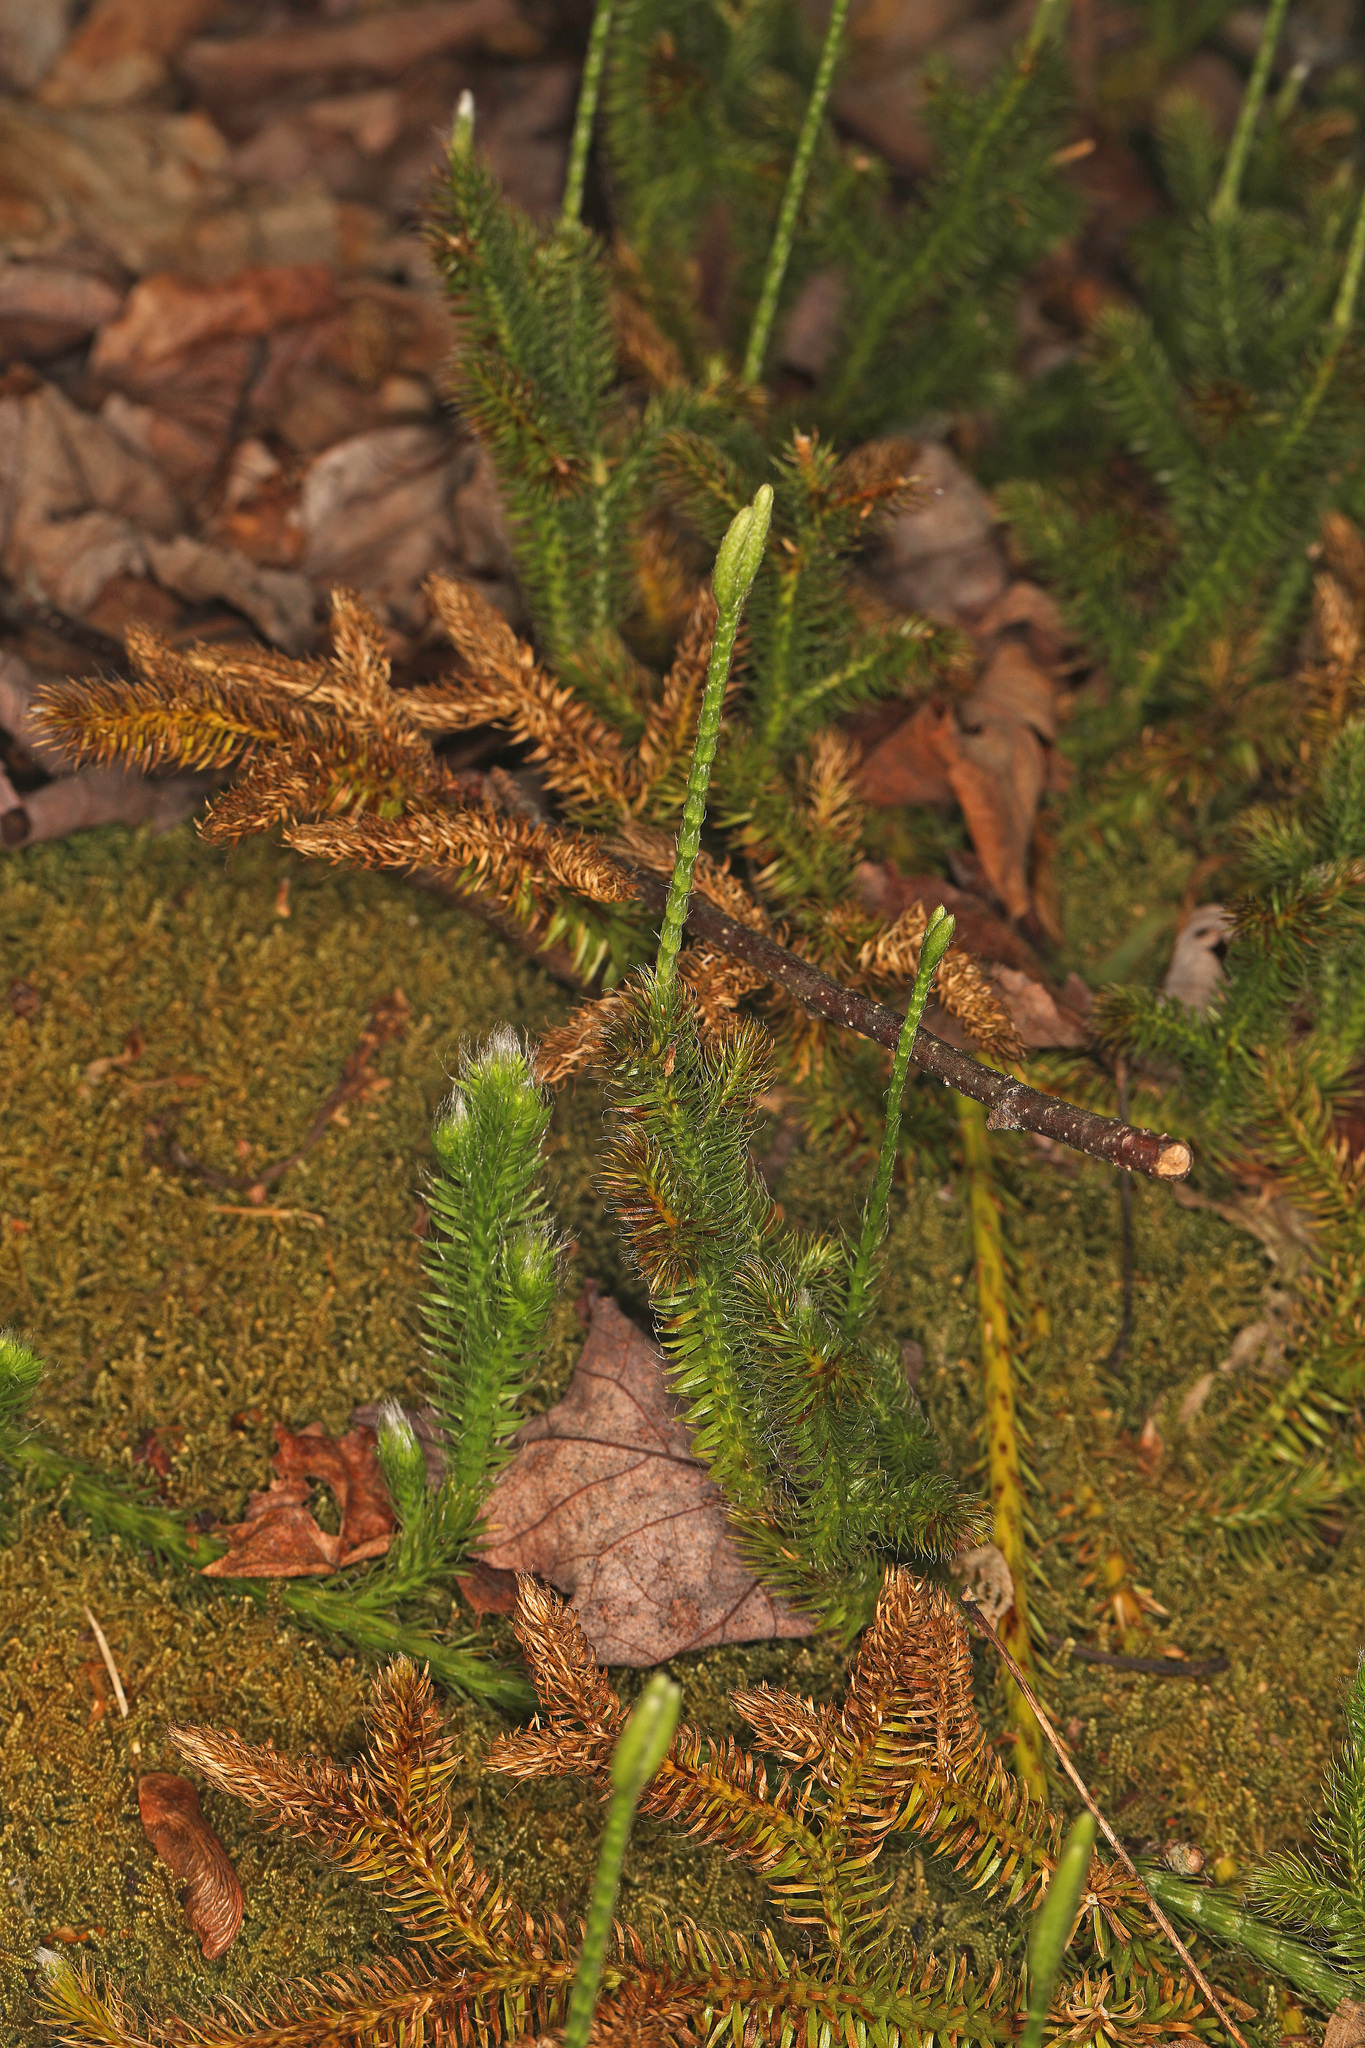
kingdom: Plantae
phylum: Tracheophyta
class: Lycopodiopsida
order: Lycopodiales
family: Lycopodiaceae
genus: Lycopodium
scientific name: Lycopodium clavatum
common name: Stag's-horn clubmoss
